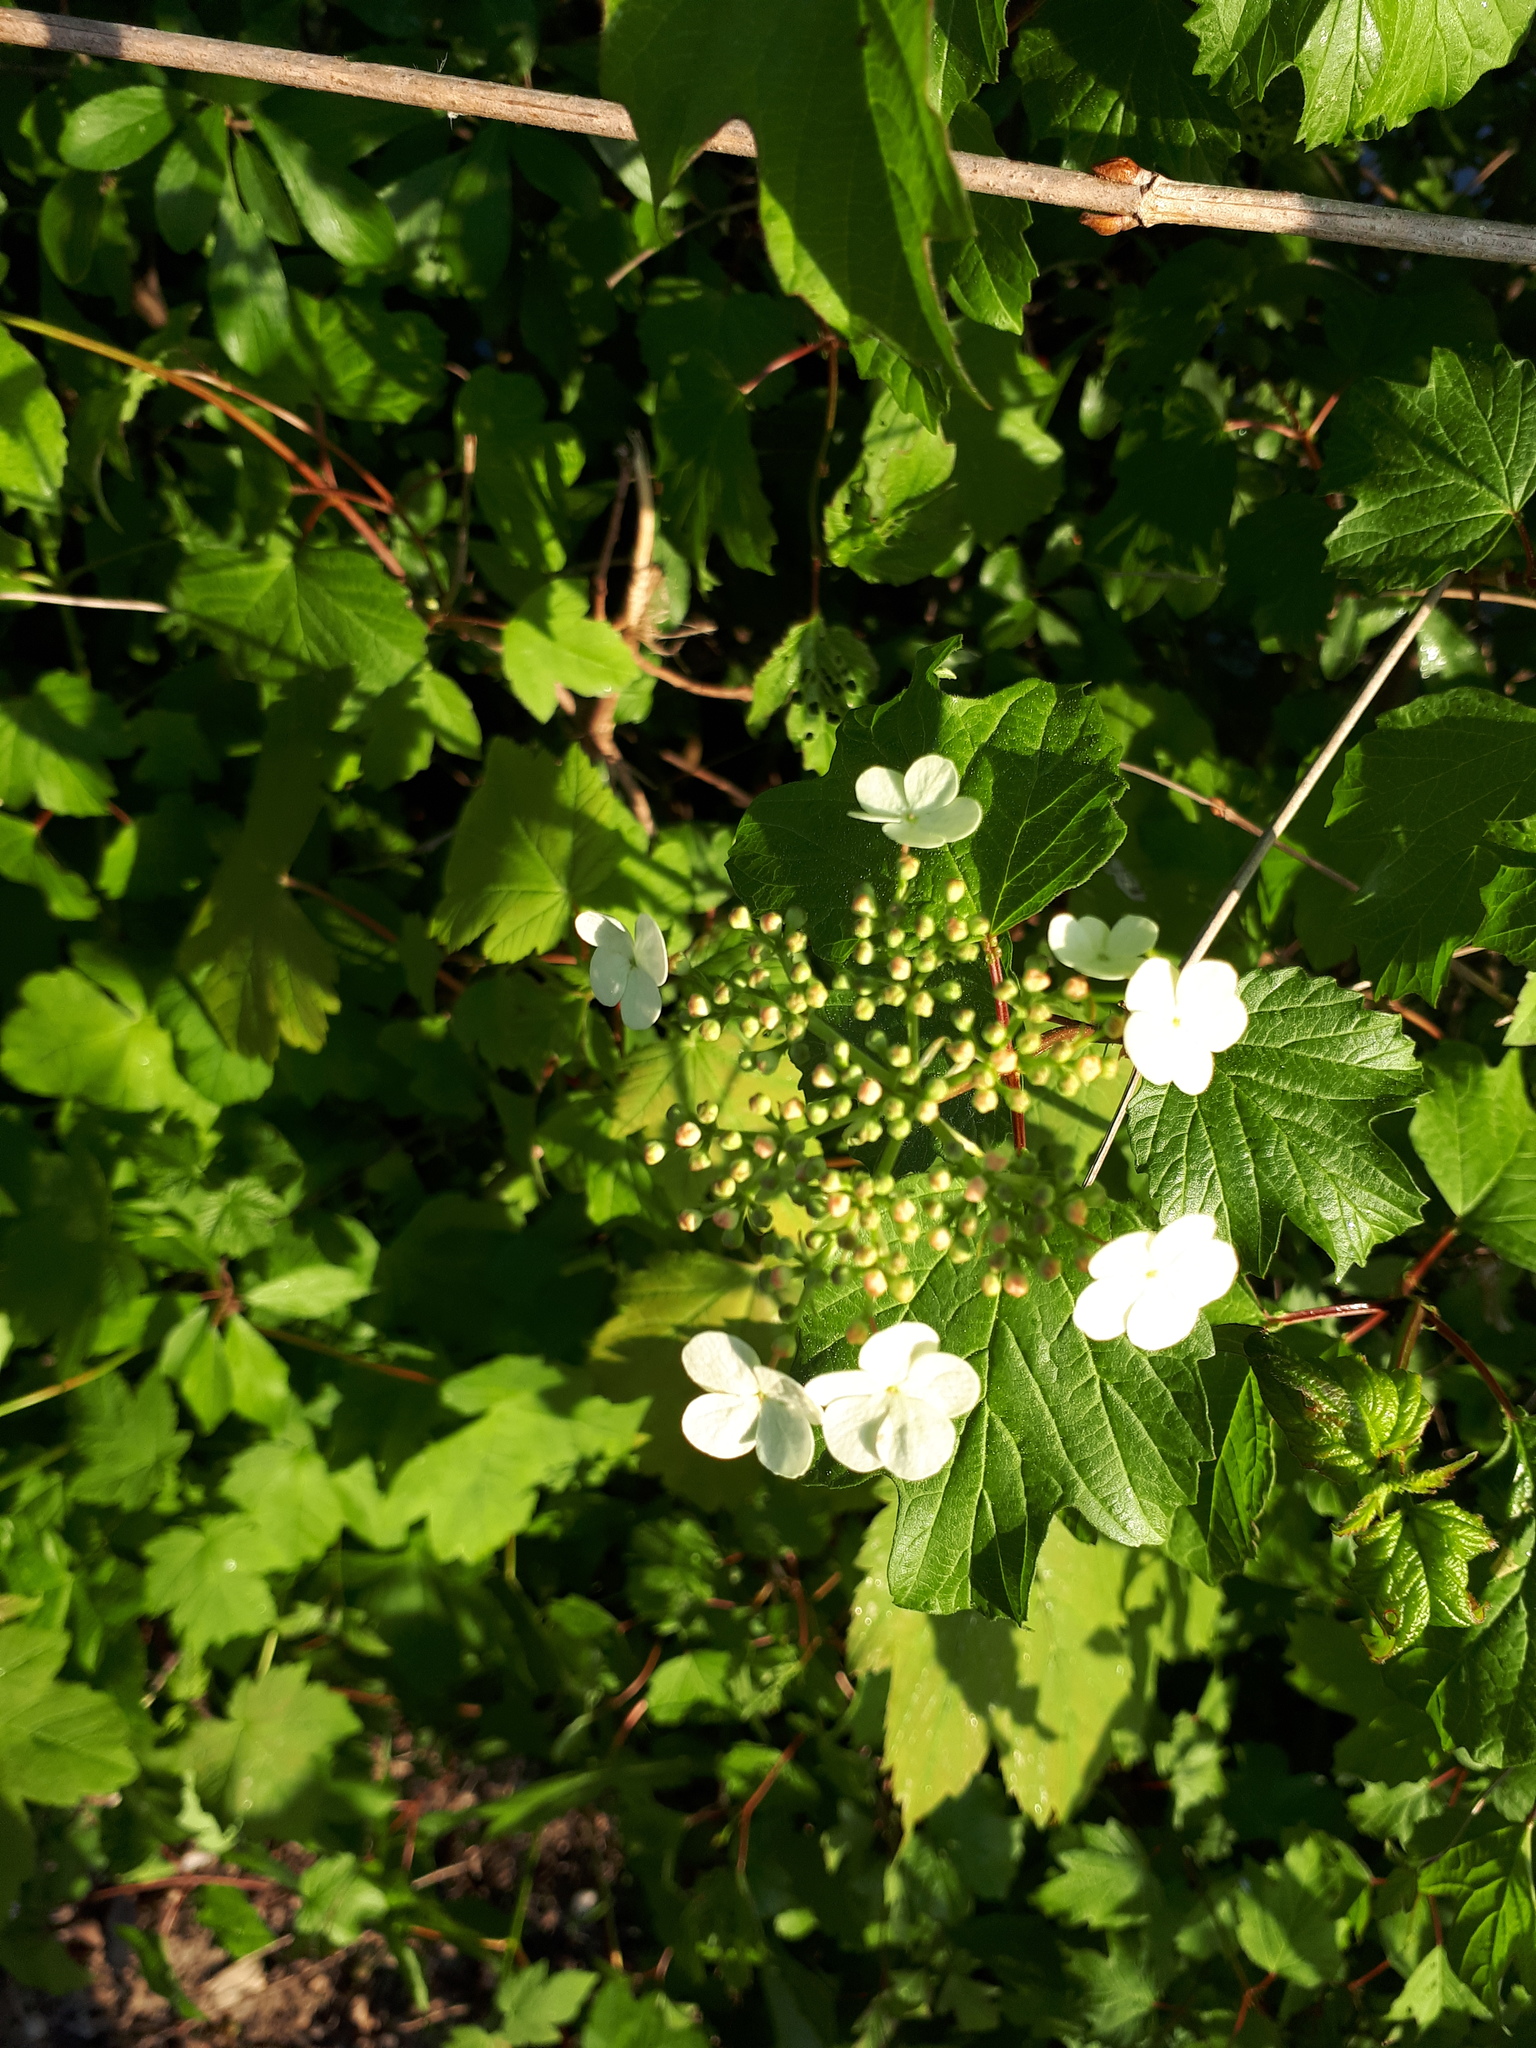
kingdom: Plantae
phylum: Tracheophyta
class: Magnoliopsida
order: Dipsacales
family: Viburnaceae
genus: Viburnum
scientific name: Viburnum opulus
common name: Guelder-rose
